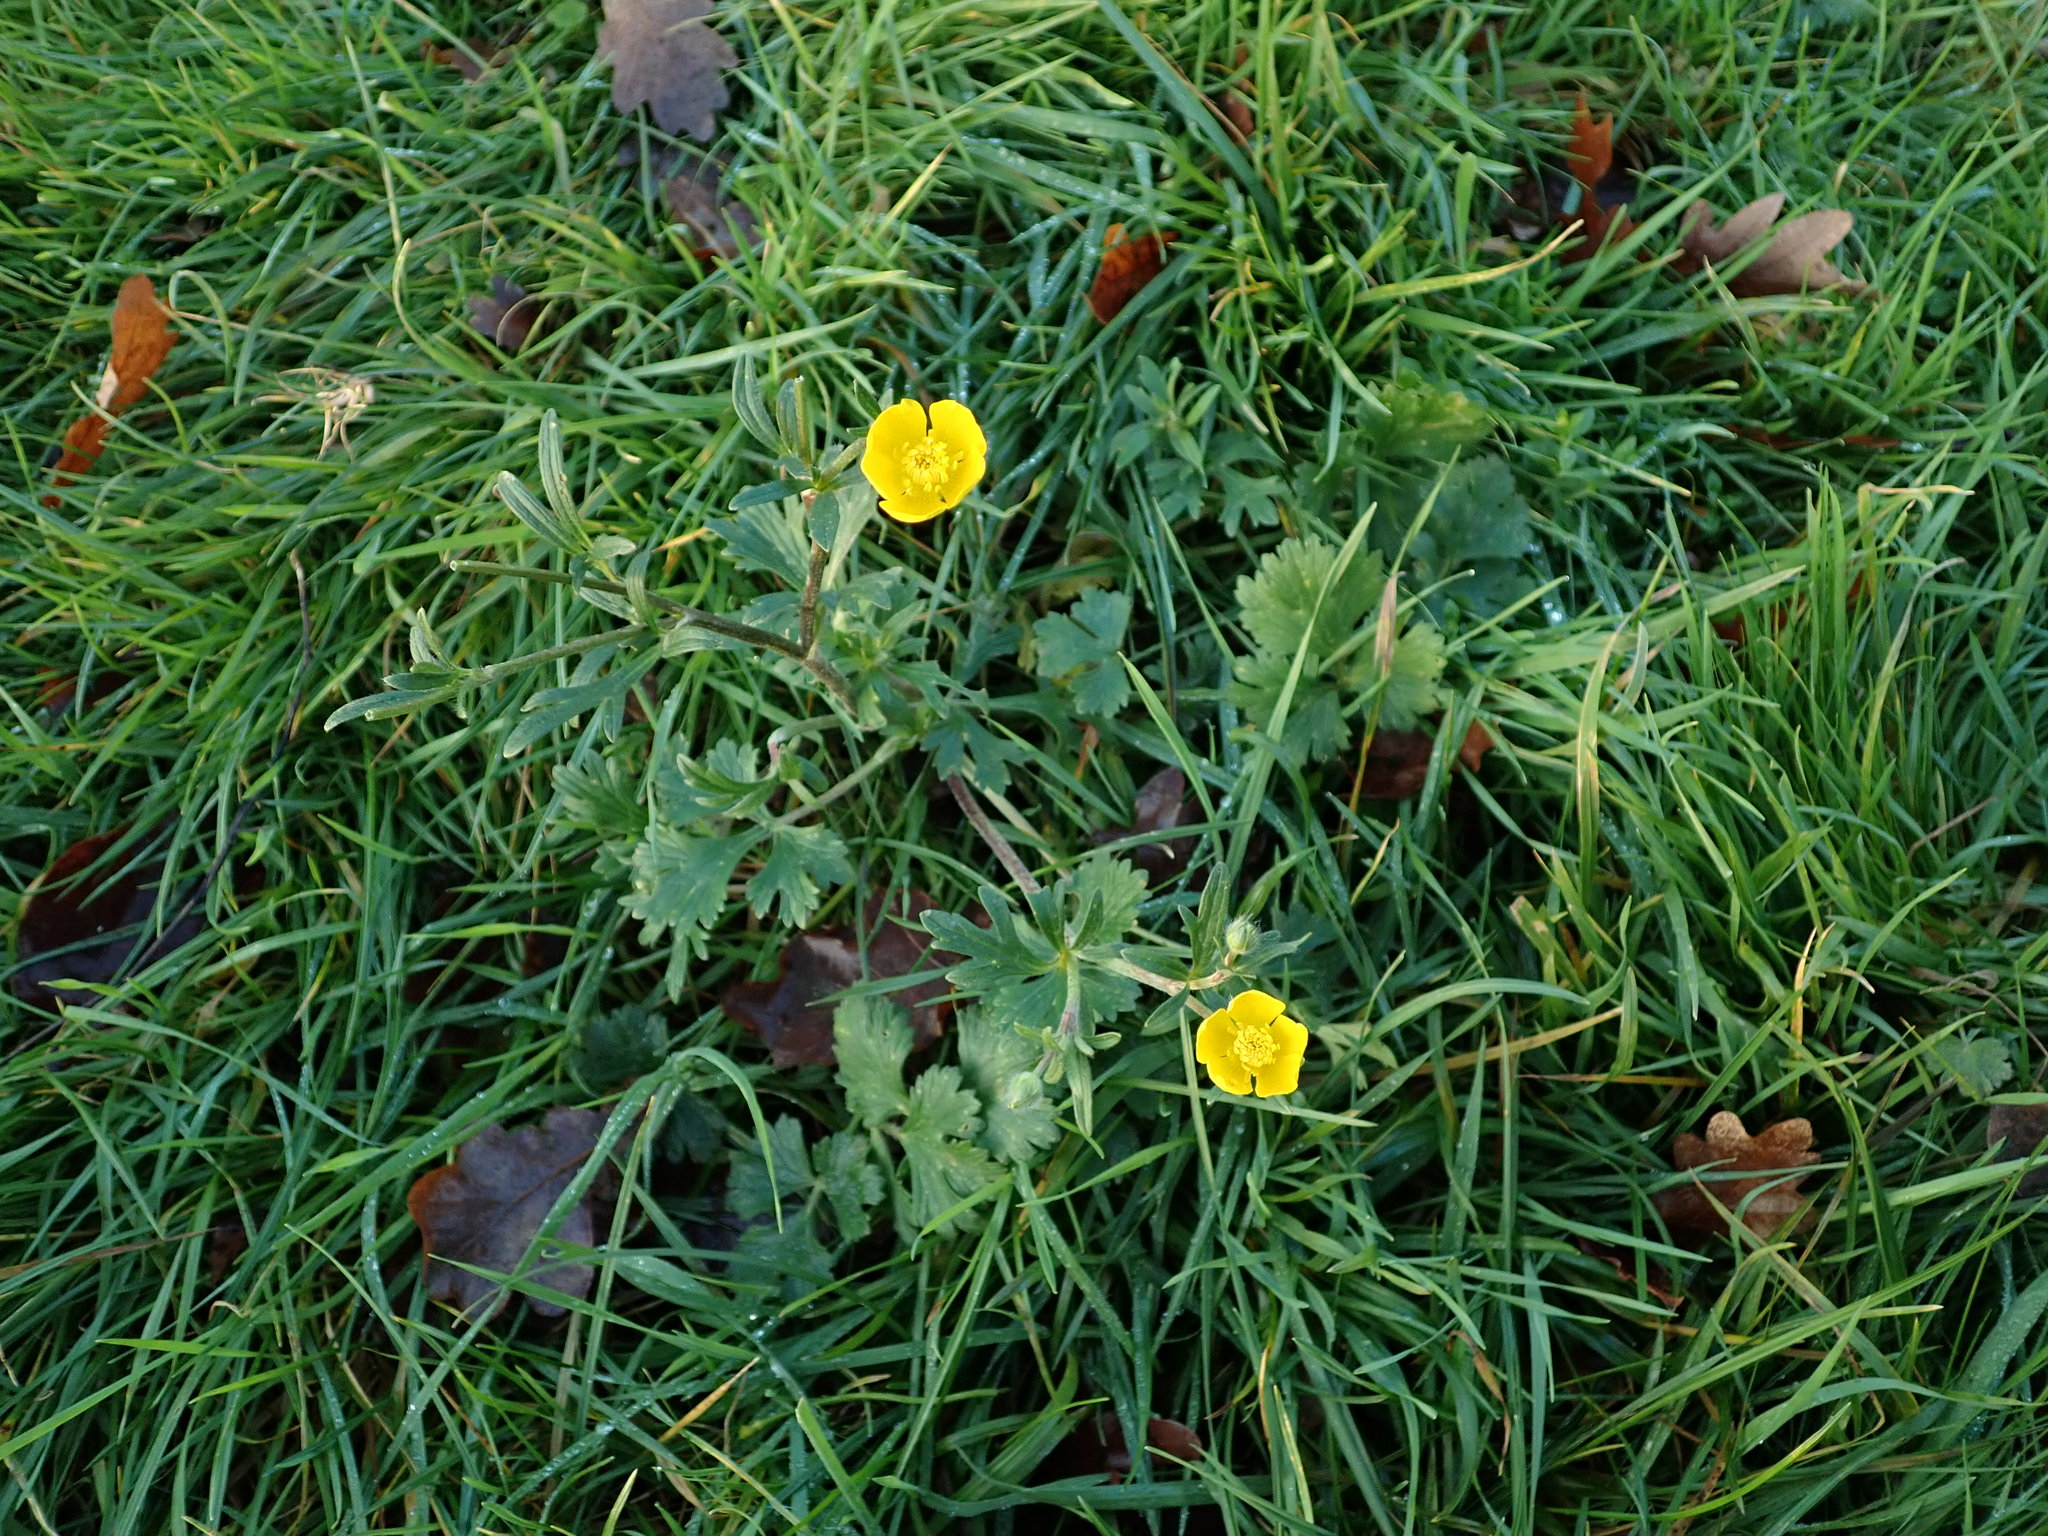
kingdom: Plantae
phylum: Tracheophyta
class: Magnoliopsida
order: Ranunculales
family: Ranunculaceae
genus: Ranunculus
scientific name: Ranunculus bulbosus
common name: Bulbous buttercup
